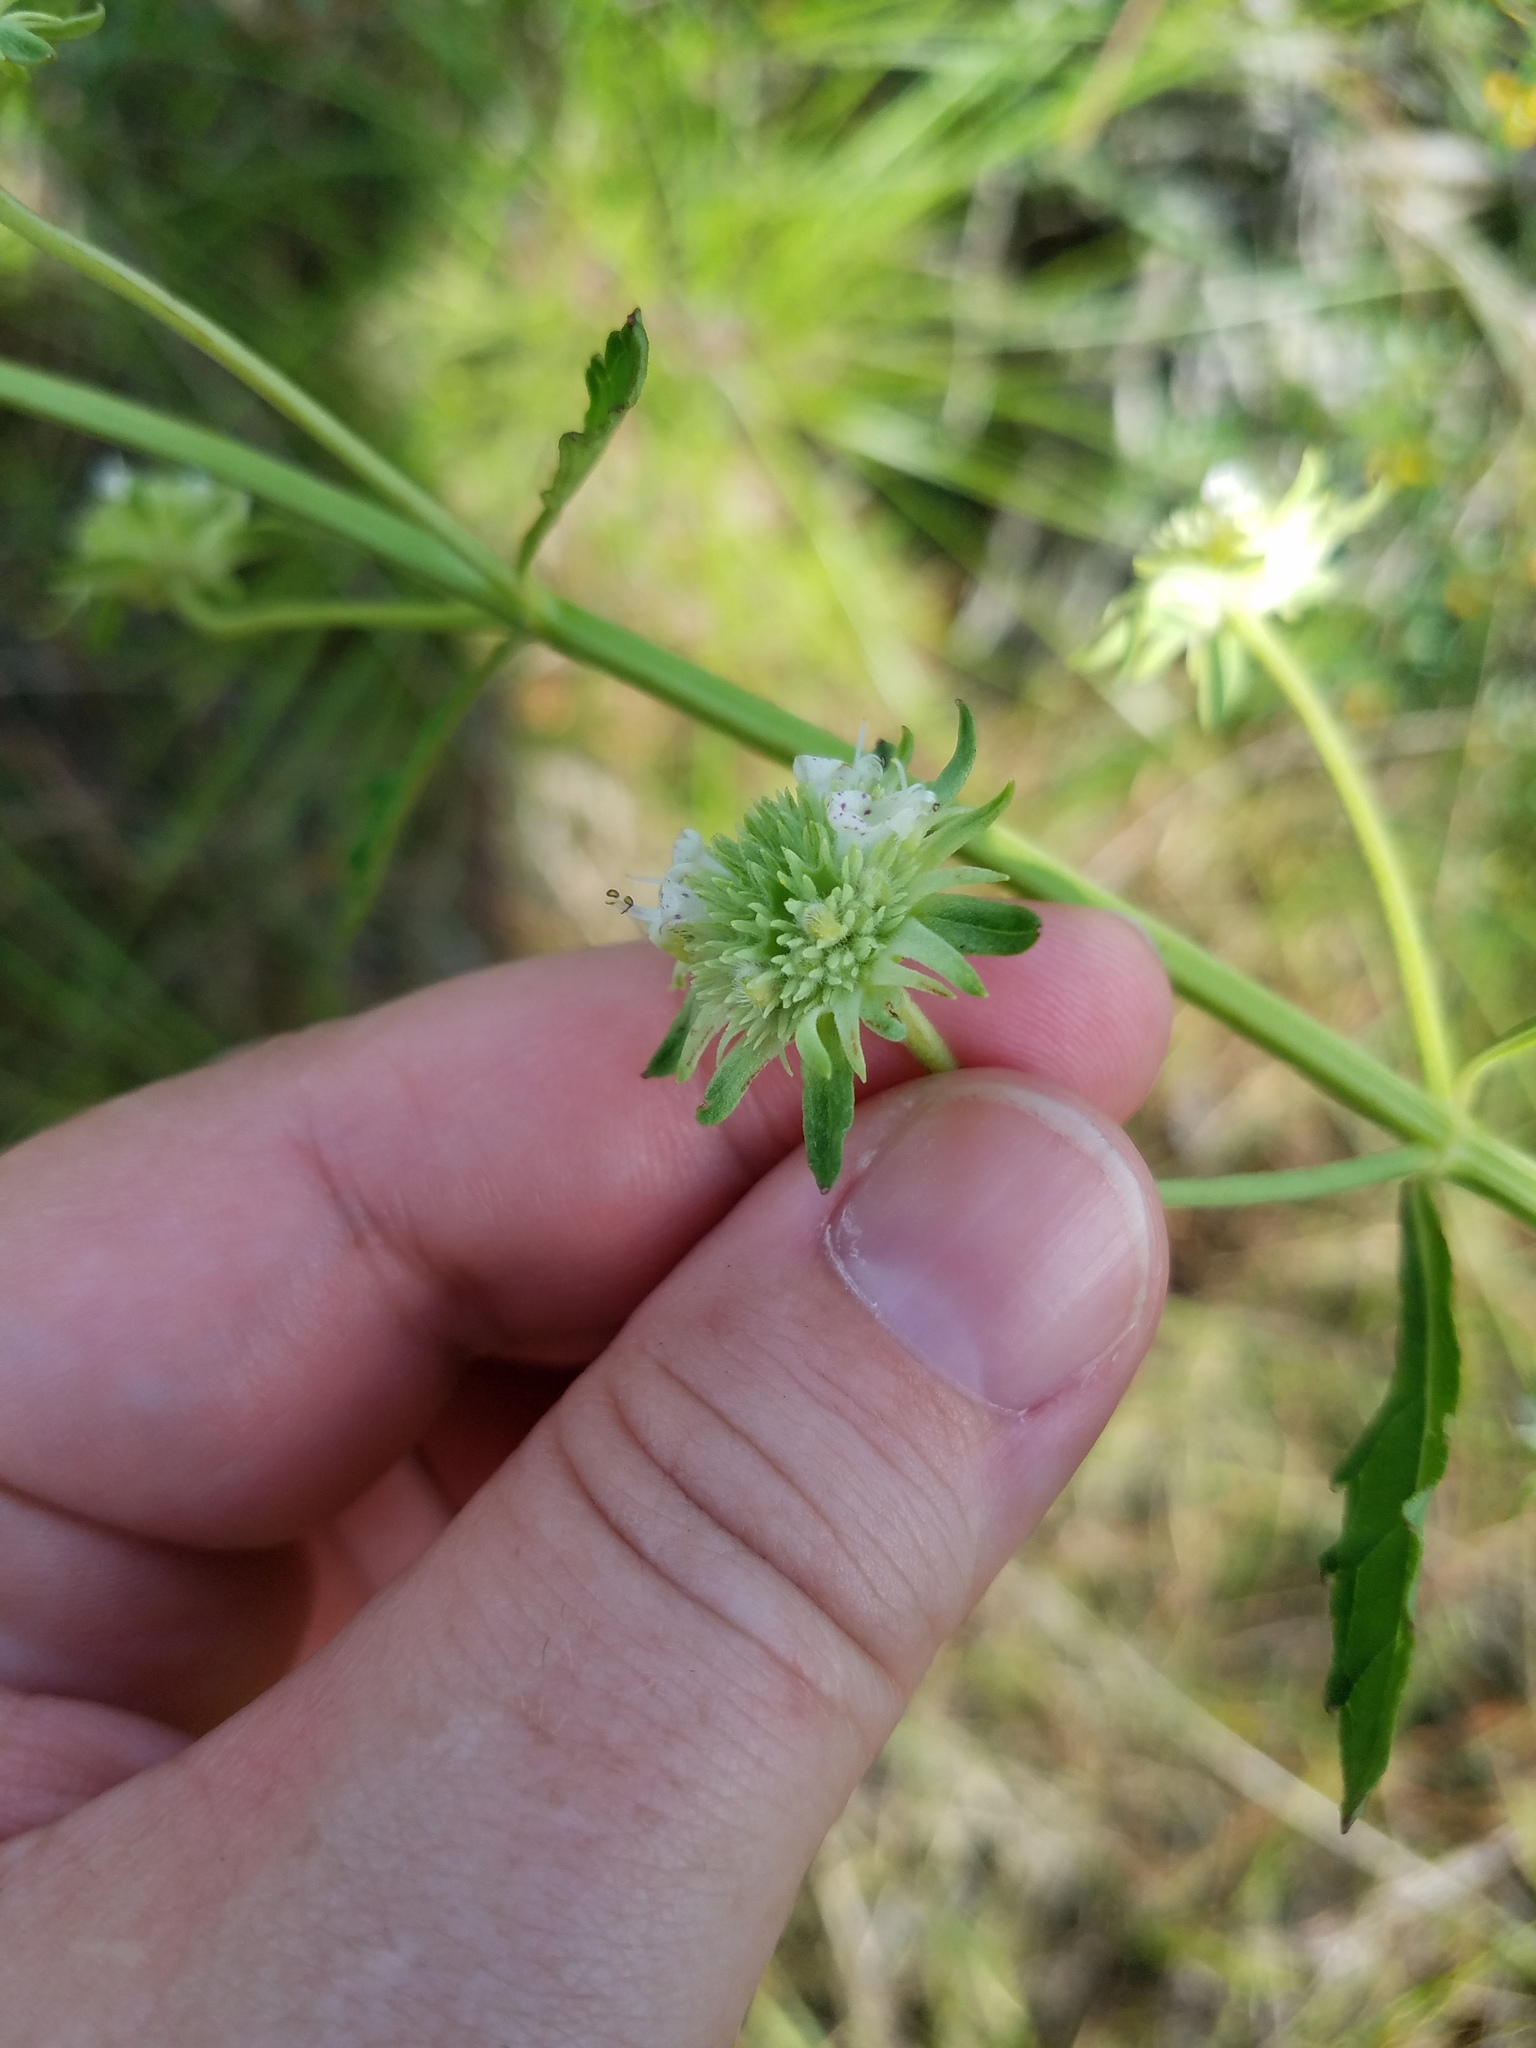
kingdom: Plantae
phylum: Tracheophyta
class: Magnoliopsida
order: Lamiales
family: Lamiaceae
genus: Hyptis
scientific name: Hyptis alata
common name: Cluster bush-mint
